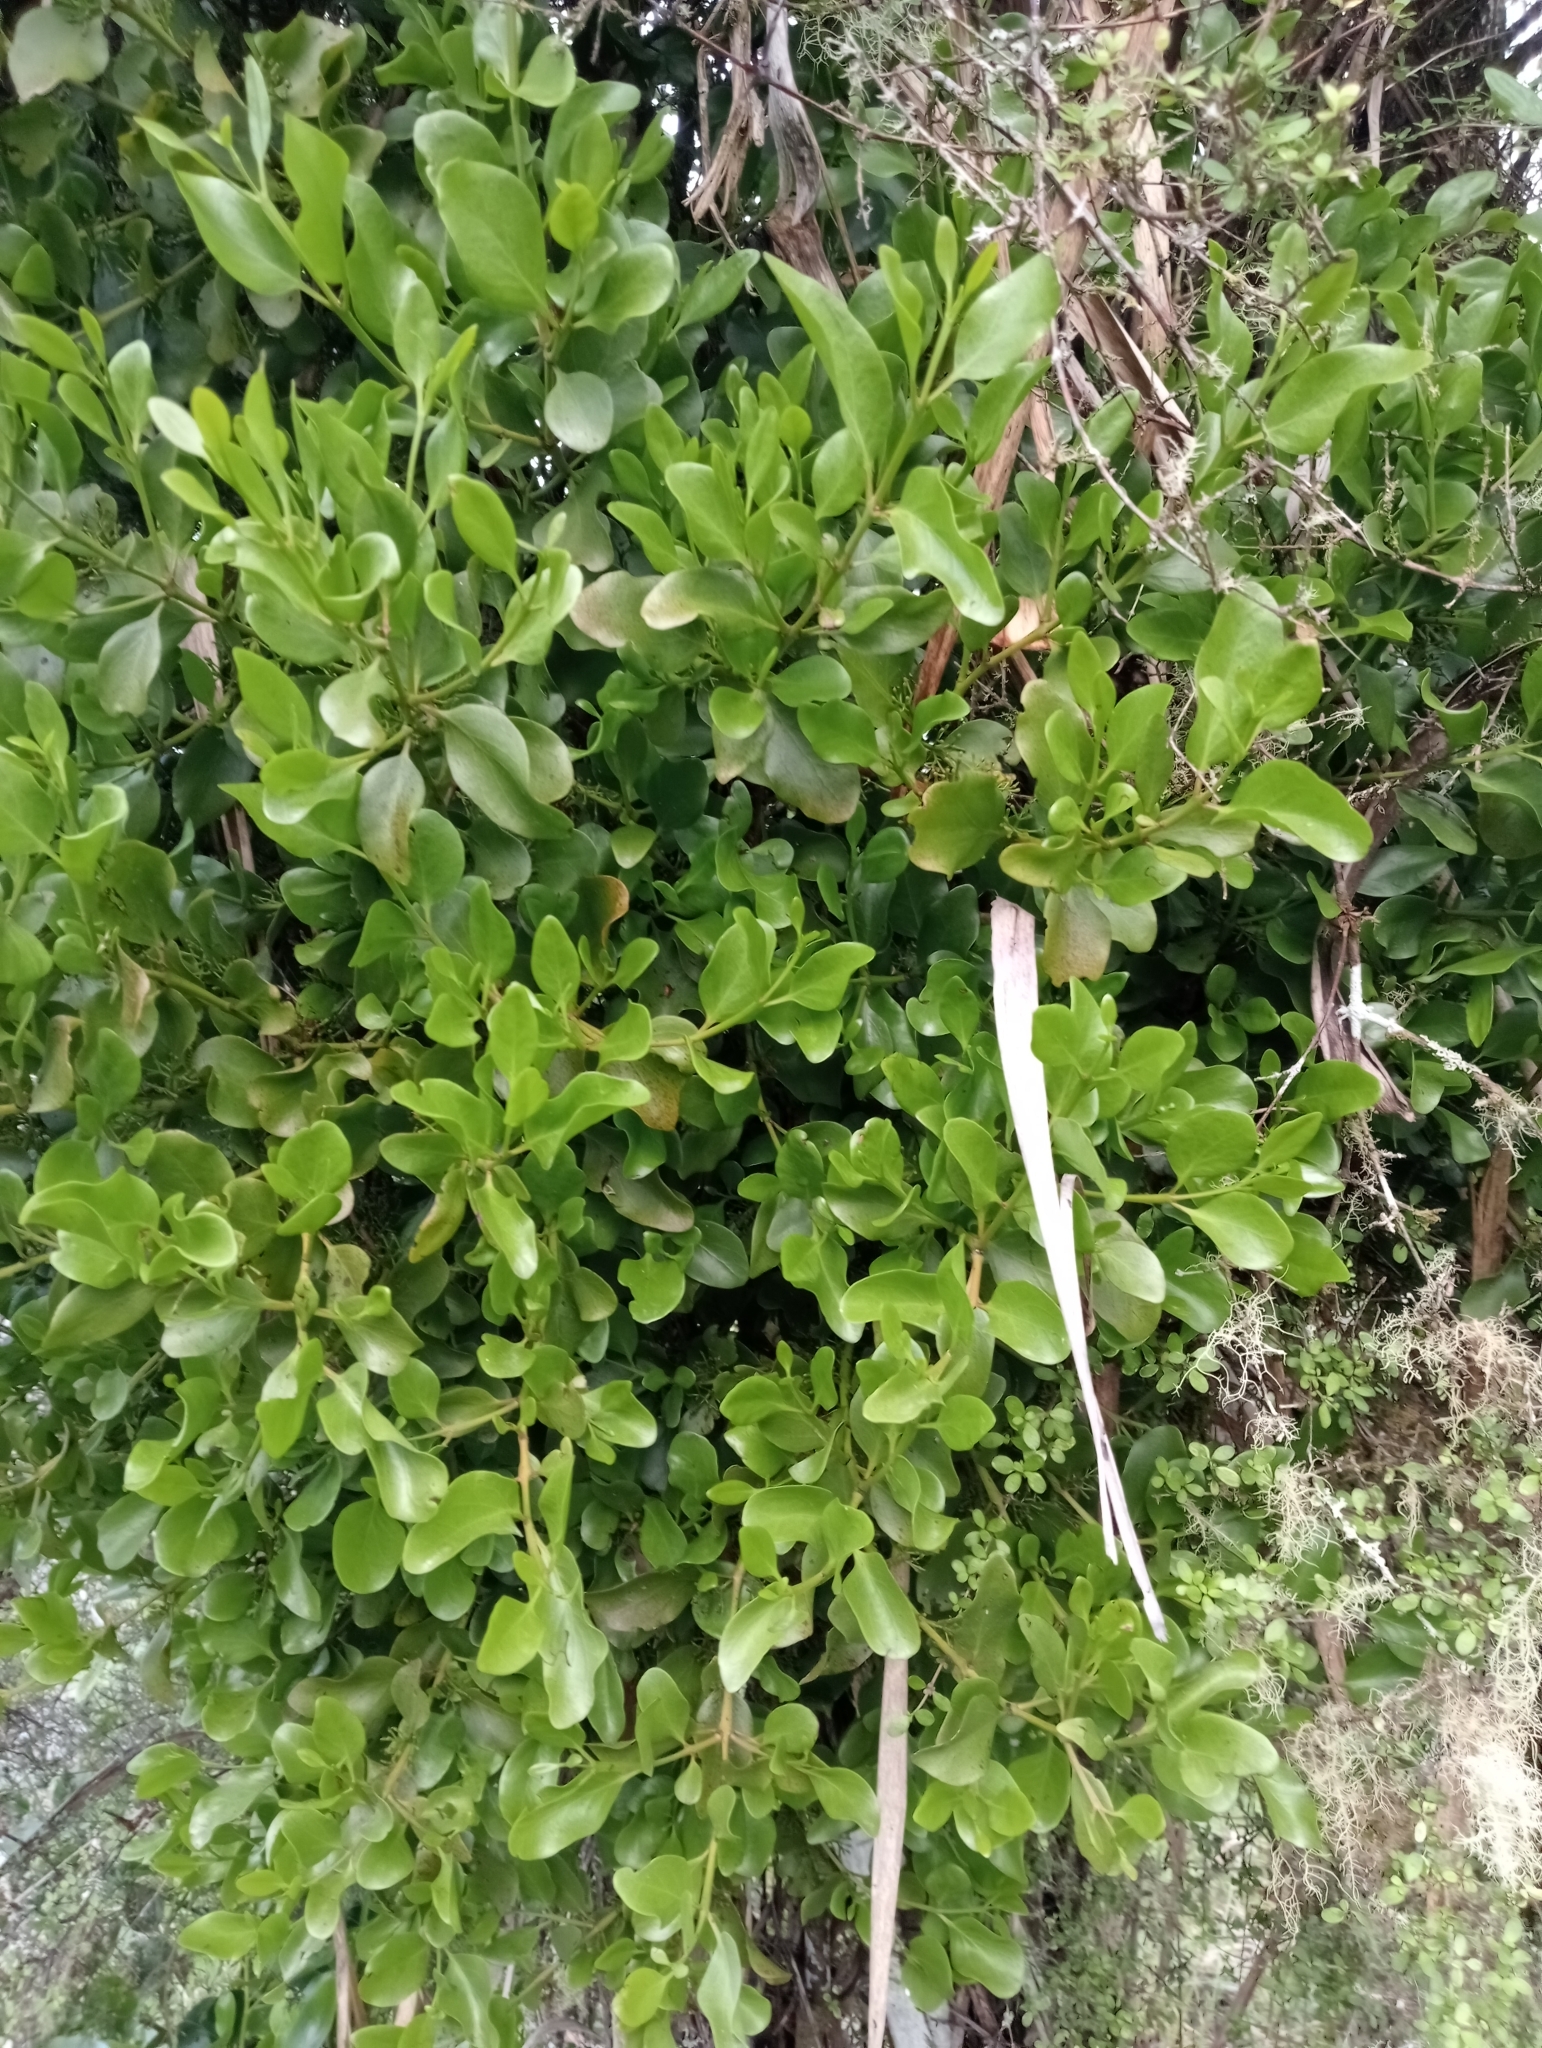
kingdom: Plantae
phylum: Tracheophyta
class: Magnoliopsida
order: Santalales
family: Loranthaceae
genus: Ileostylus
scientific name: Ileostylus micranthus
